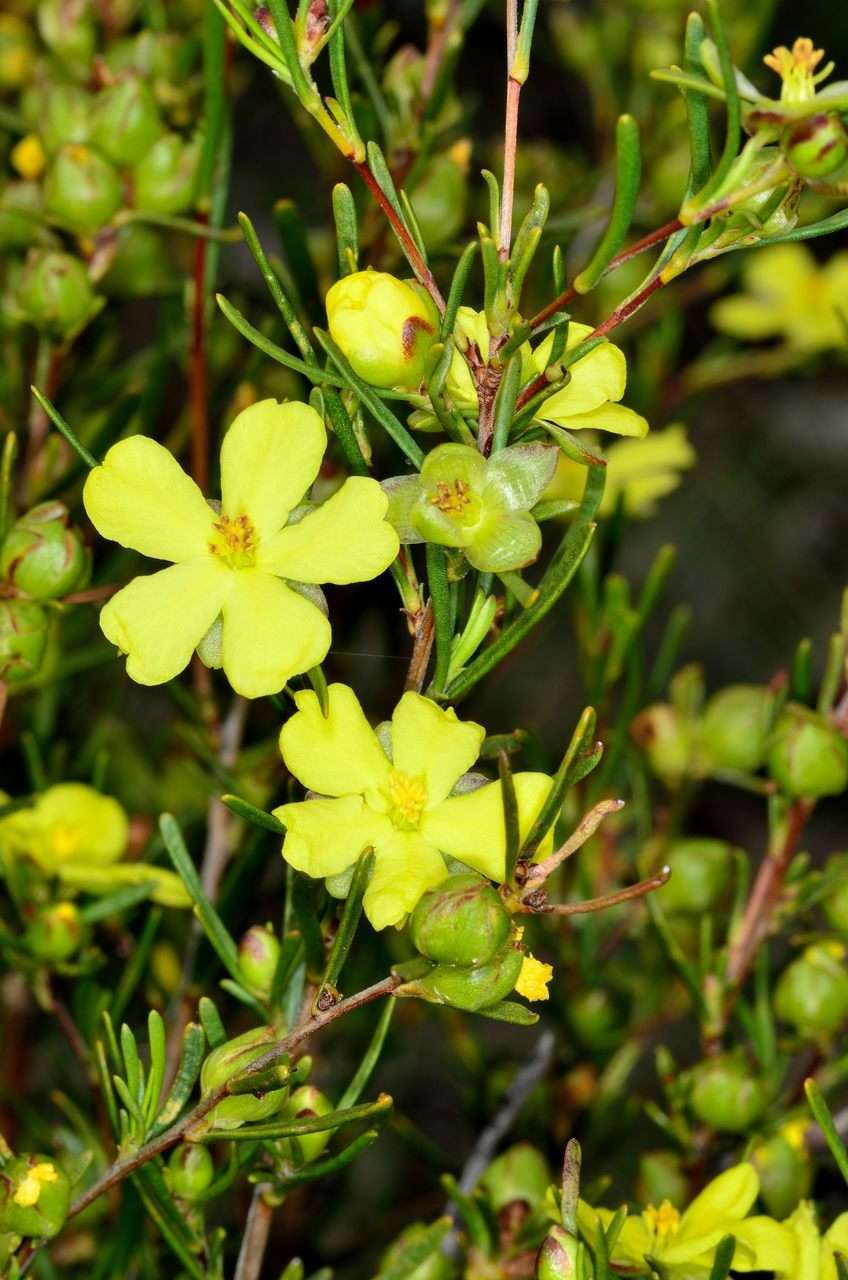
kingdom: Plantae
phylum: Tracheophyta
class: Magnoliopsida
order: Dilleniales
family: Dilleniaceae
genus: Hibbertia
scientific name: Hibbertia virgata
